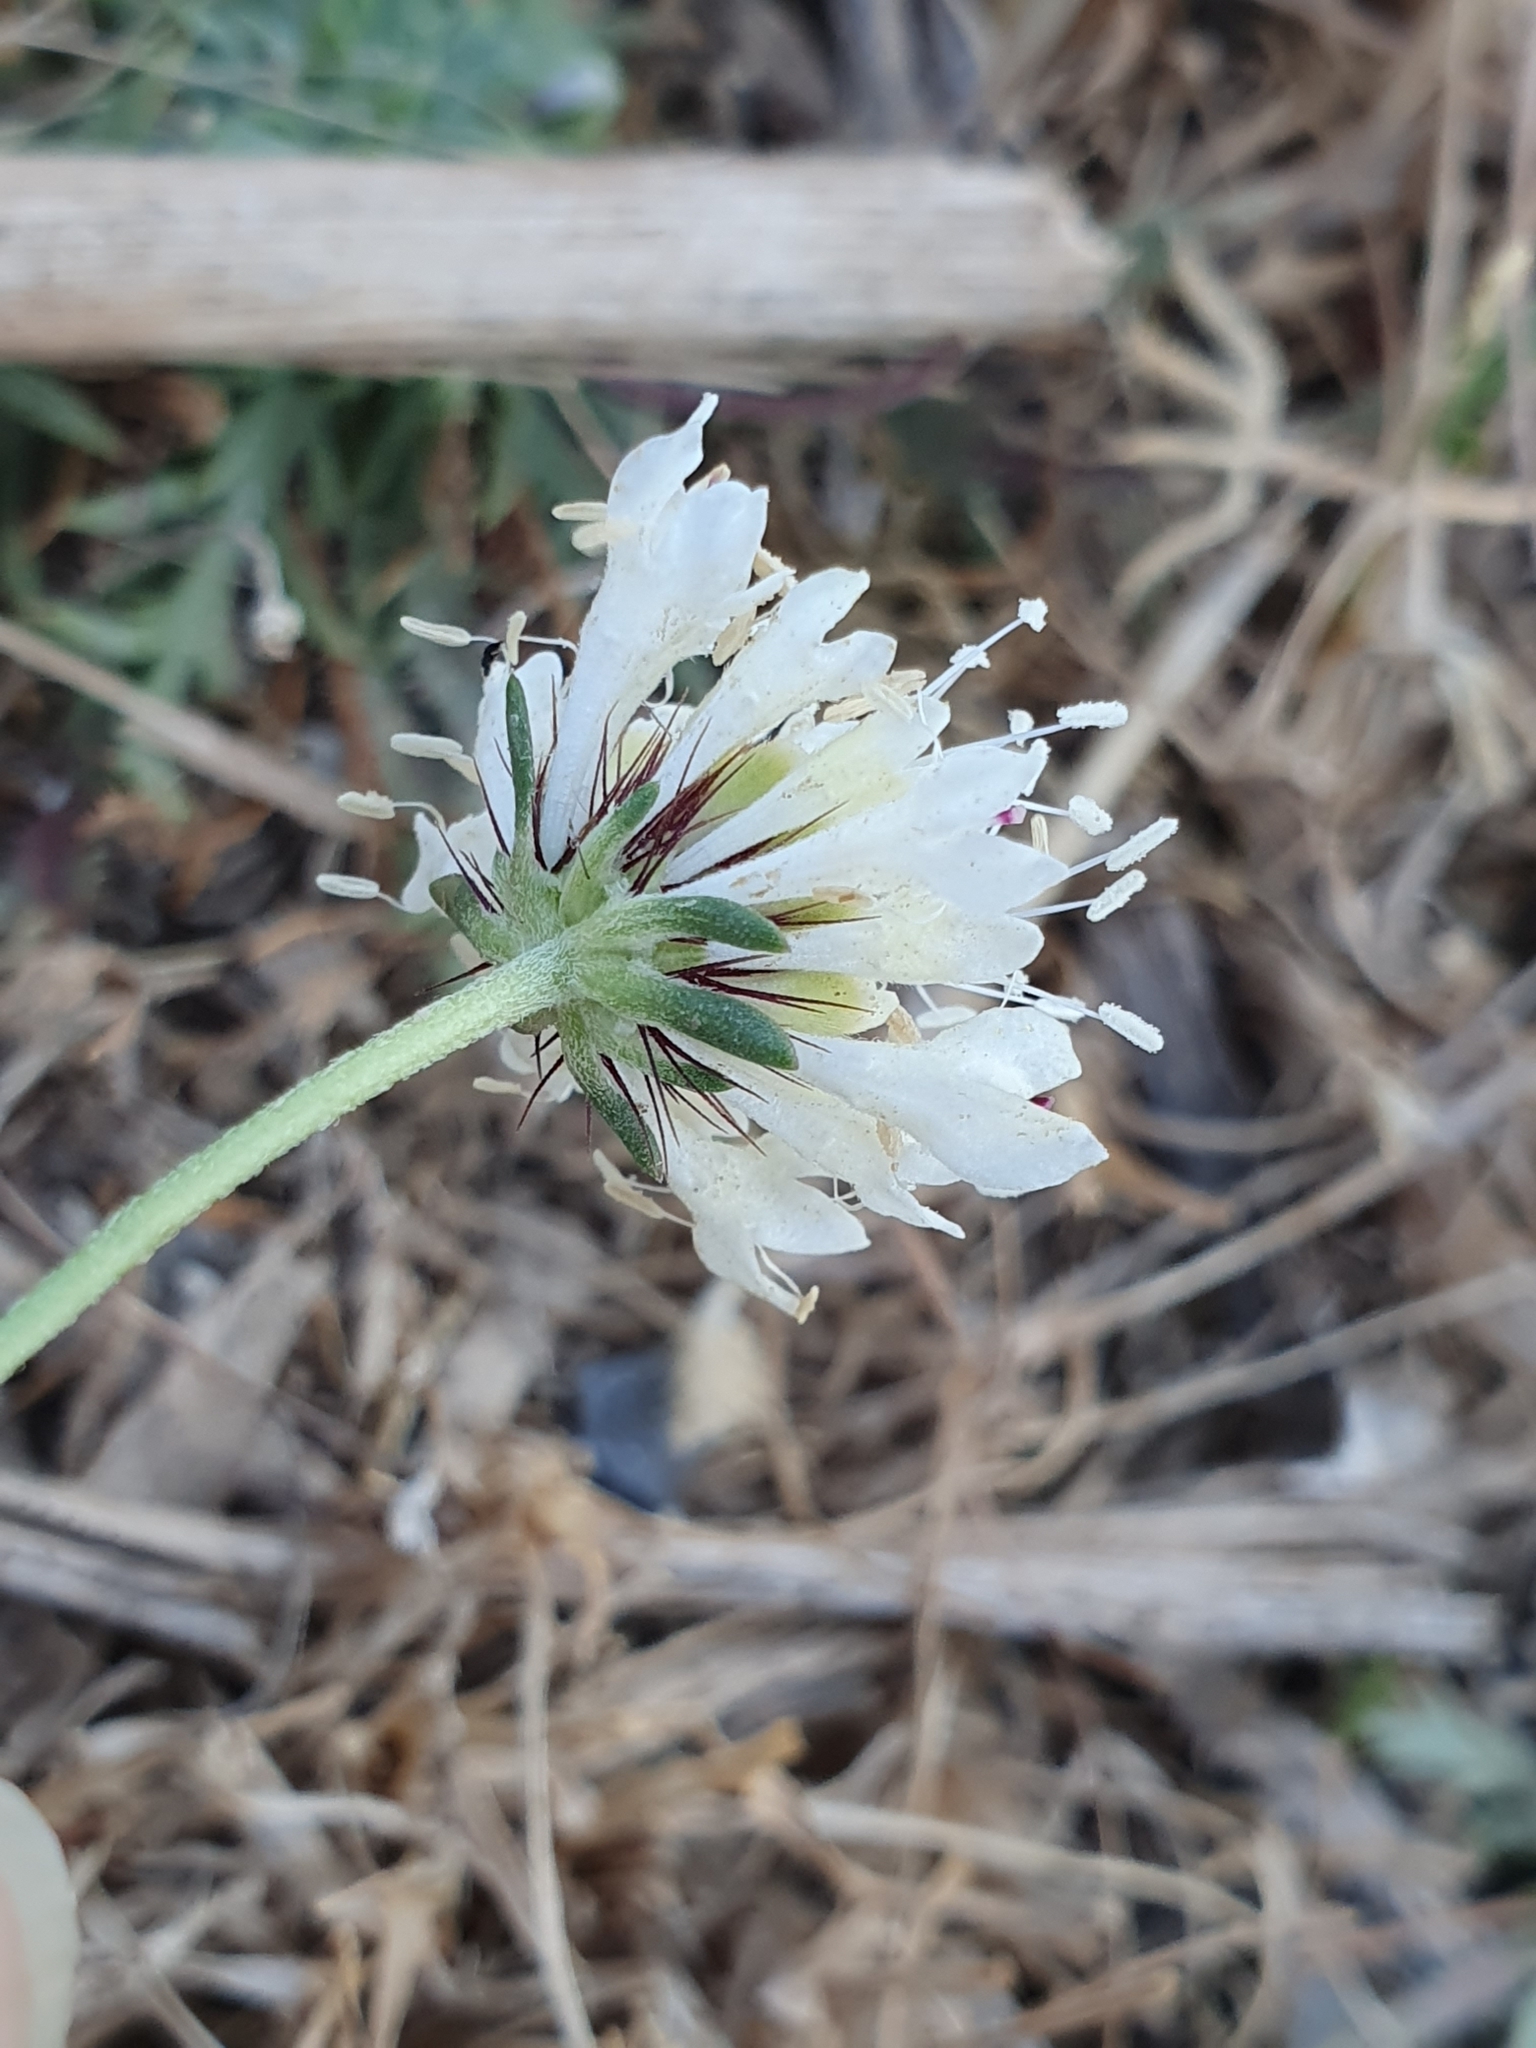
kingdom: Plantae
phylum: Tracheophyta
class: Magnoliopsida
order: Dipsacales
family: Caprifoliaceae
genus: Sixalix
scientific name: Sixalix atropurpurea
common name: Sweet scabious
